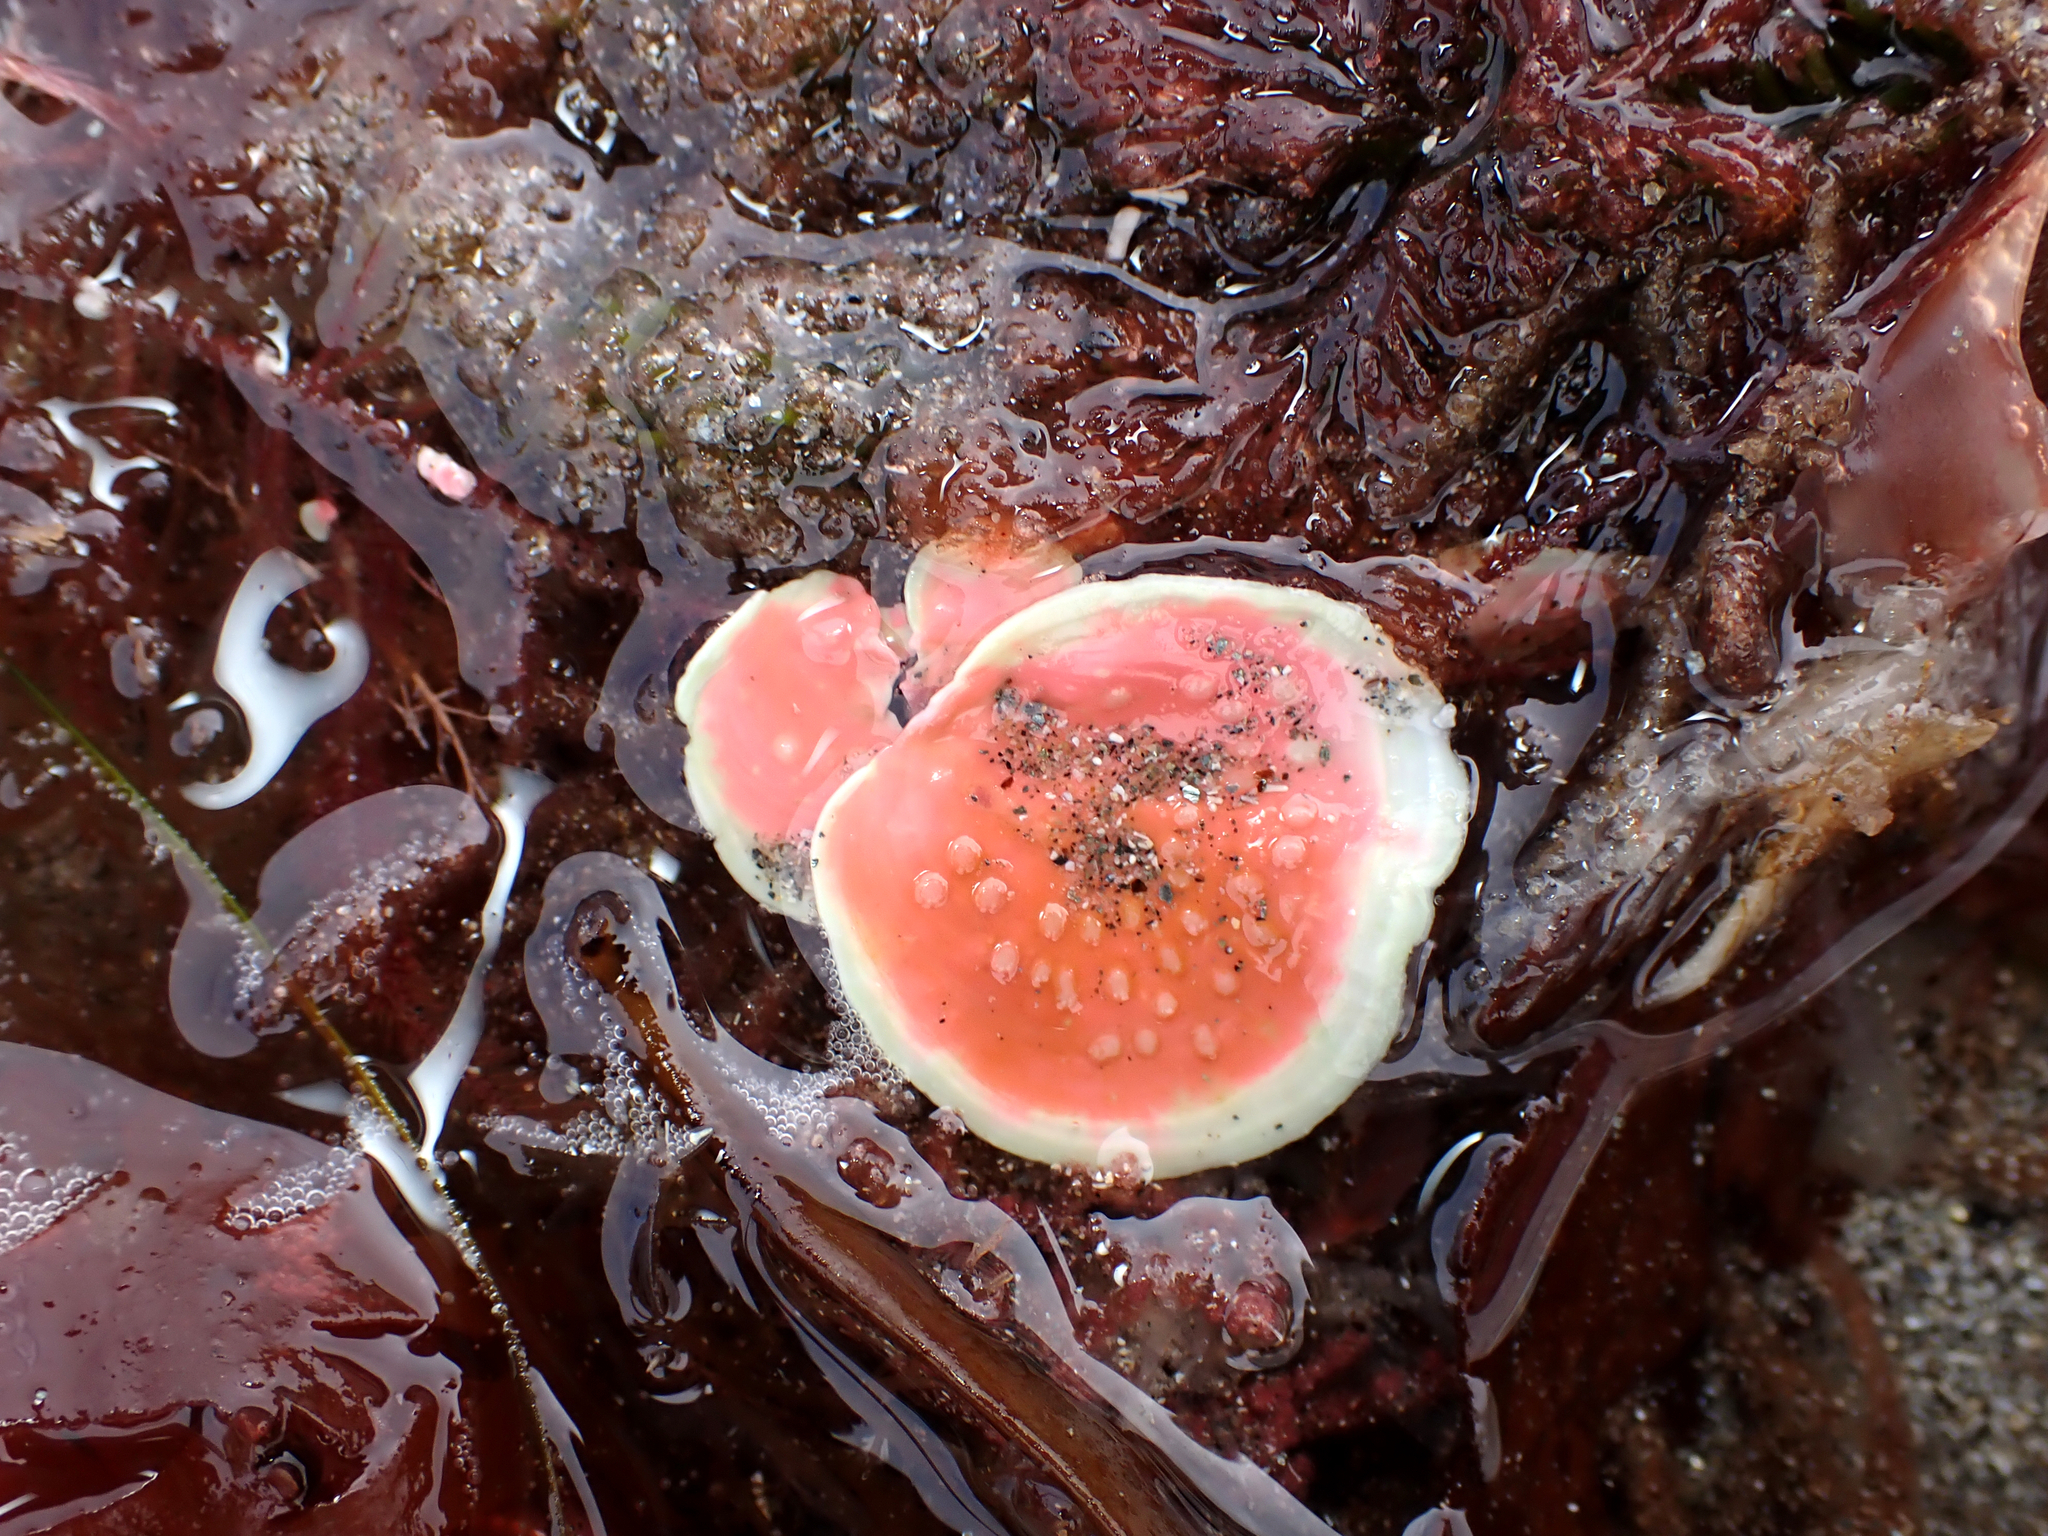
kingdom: Plantae
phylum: Rhodophyta
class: Florideophyceae
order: Corallinales
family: Hapalidiaceae
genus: Synarthrophyton
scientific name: Synarthrophyton patena
